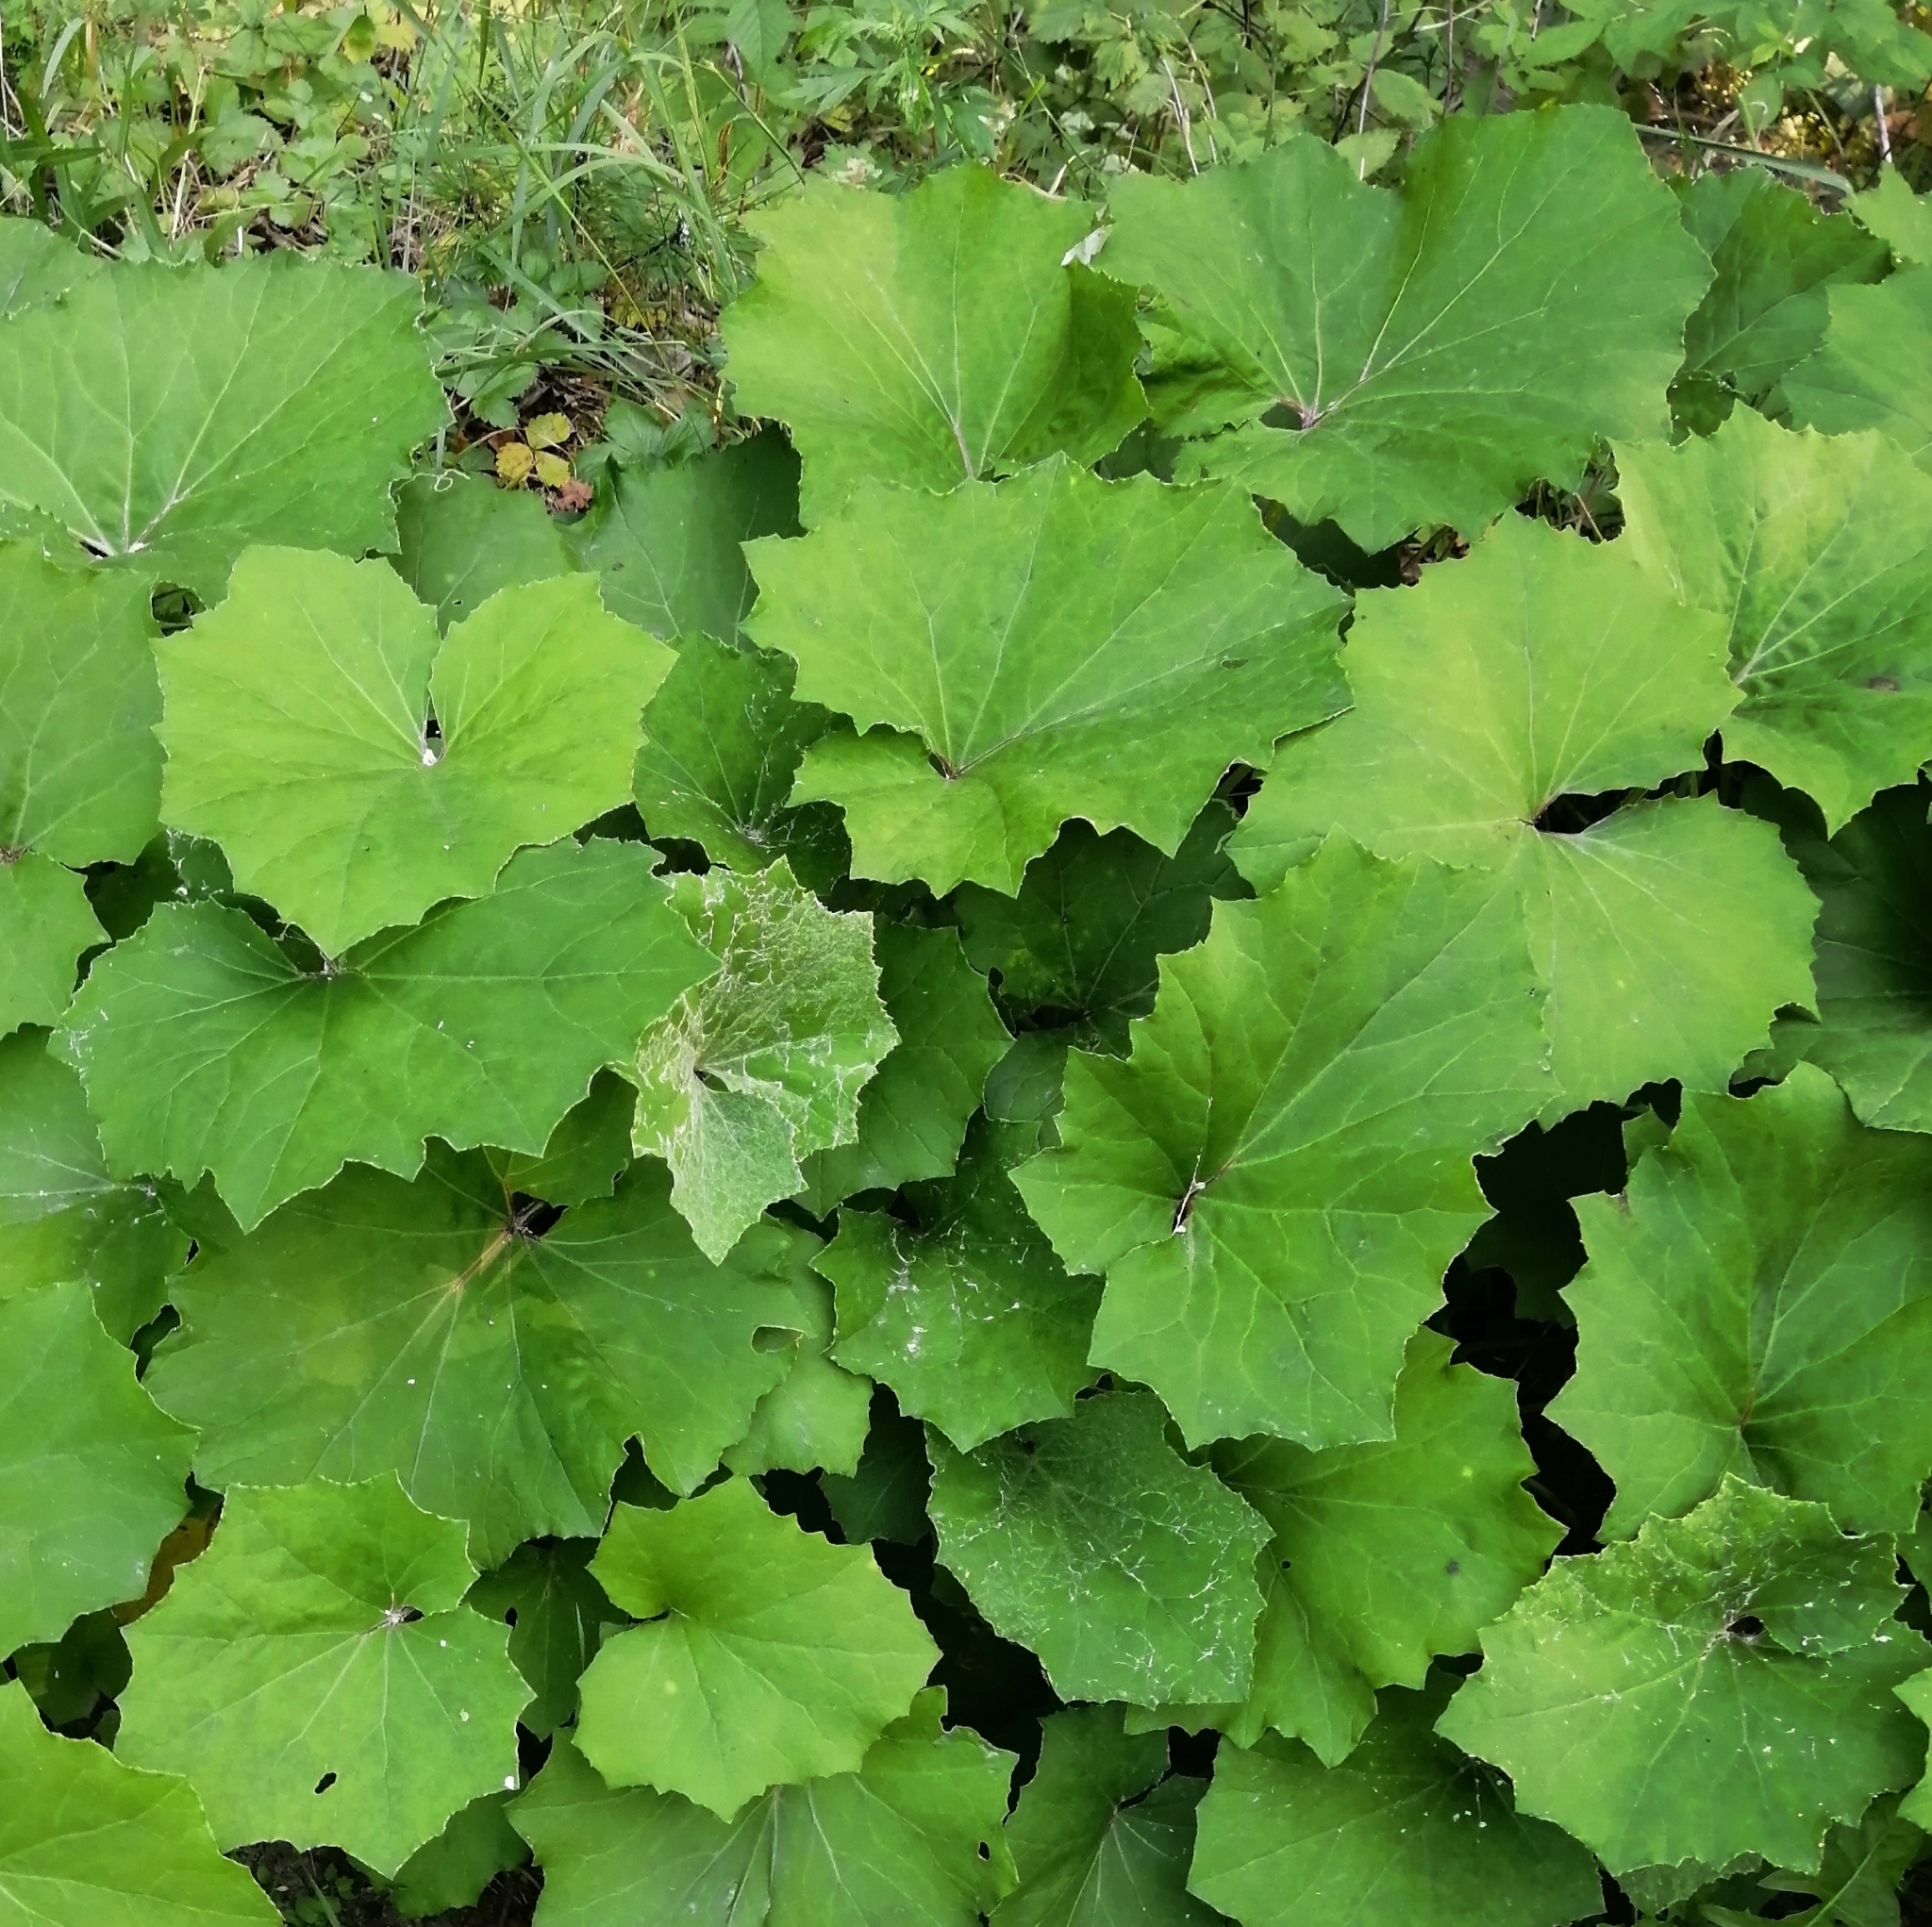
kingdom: Plantae
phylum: Tracheophyta
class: Magnoliopsida
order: Asterales
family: Asteraceae
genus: Tussilago
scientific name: Tussilago farfara
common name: Coltsfoot
